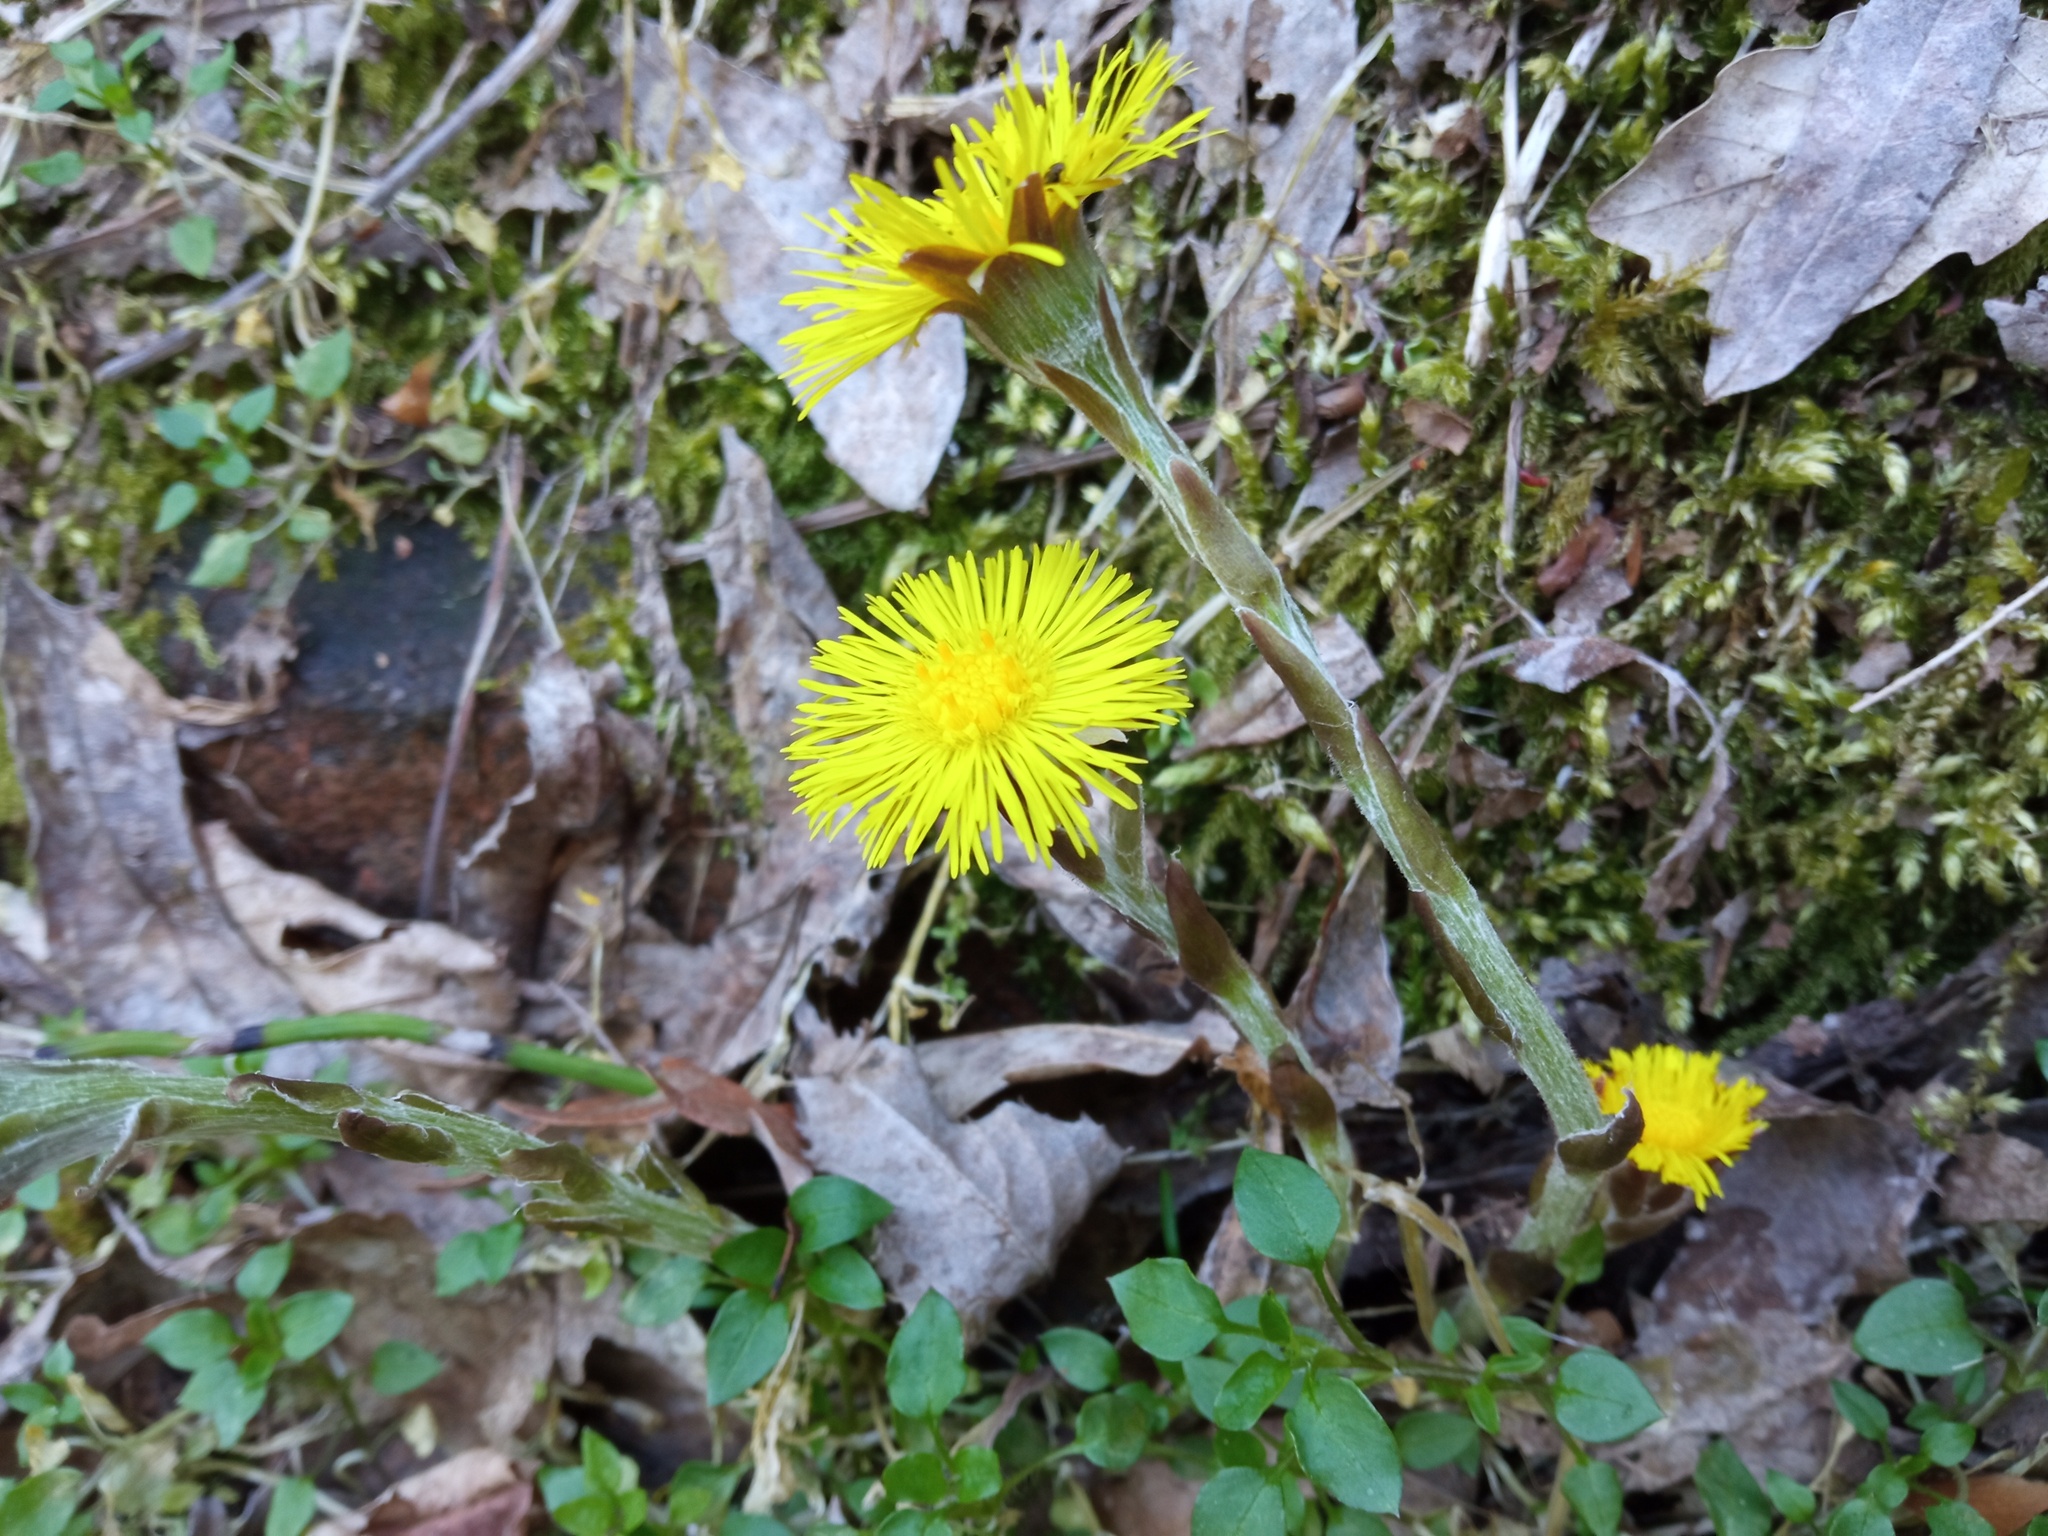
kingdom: Plantae
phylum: Tracheophyta
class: Magnoliopsida
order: Asterales
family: Asteraceae
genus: Tussilago
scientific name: Tussilago farfara
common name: Coltsfoot
